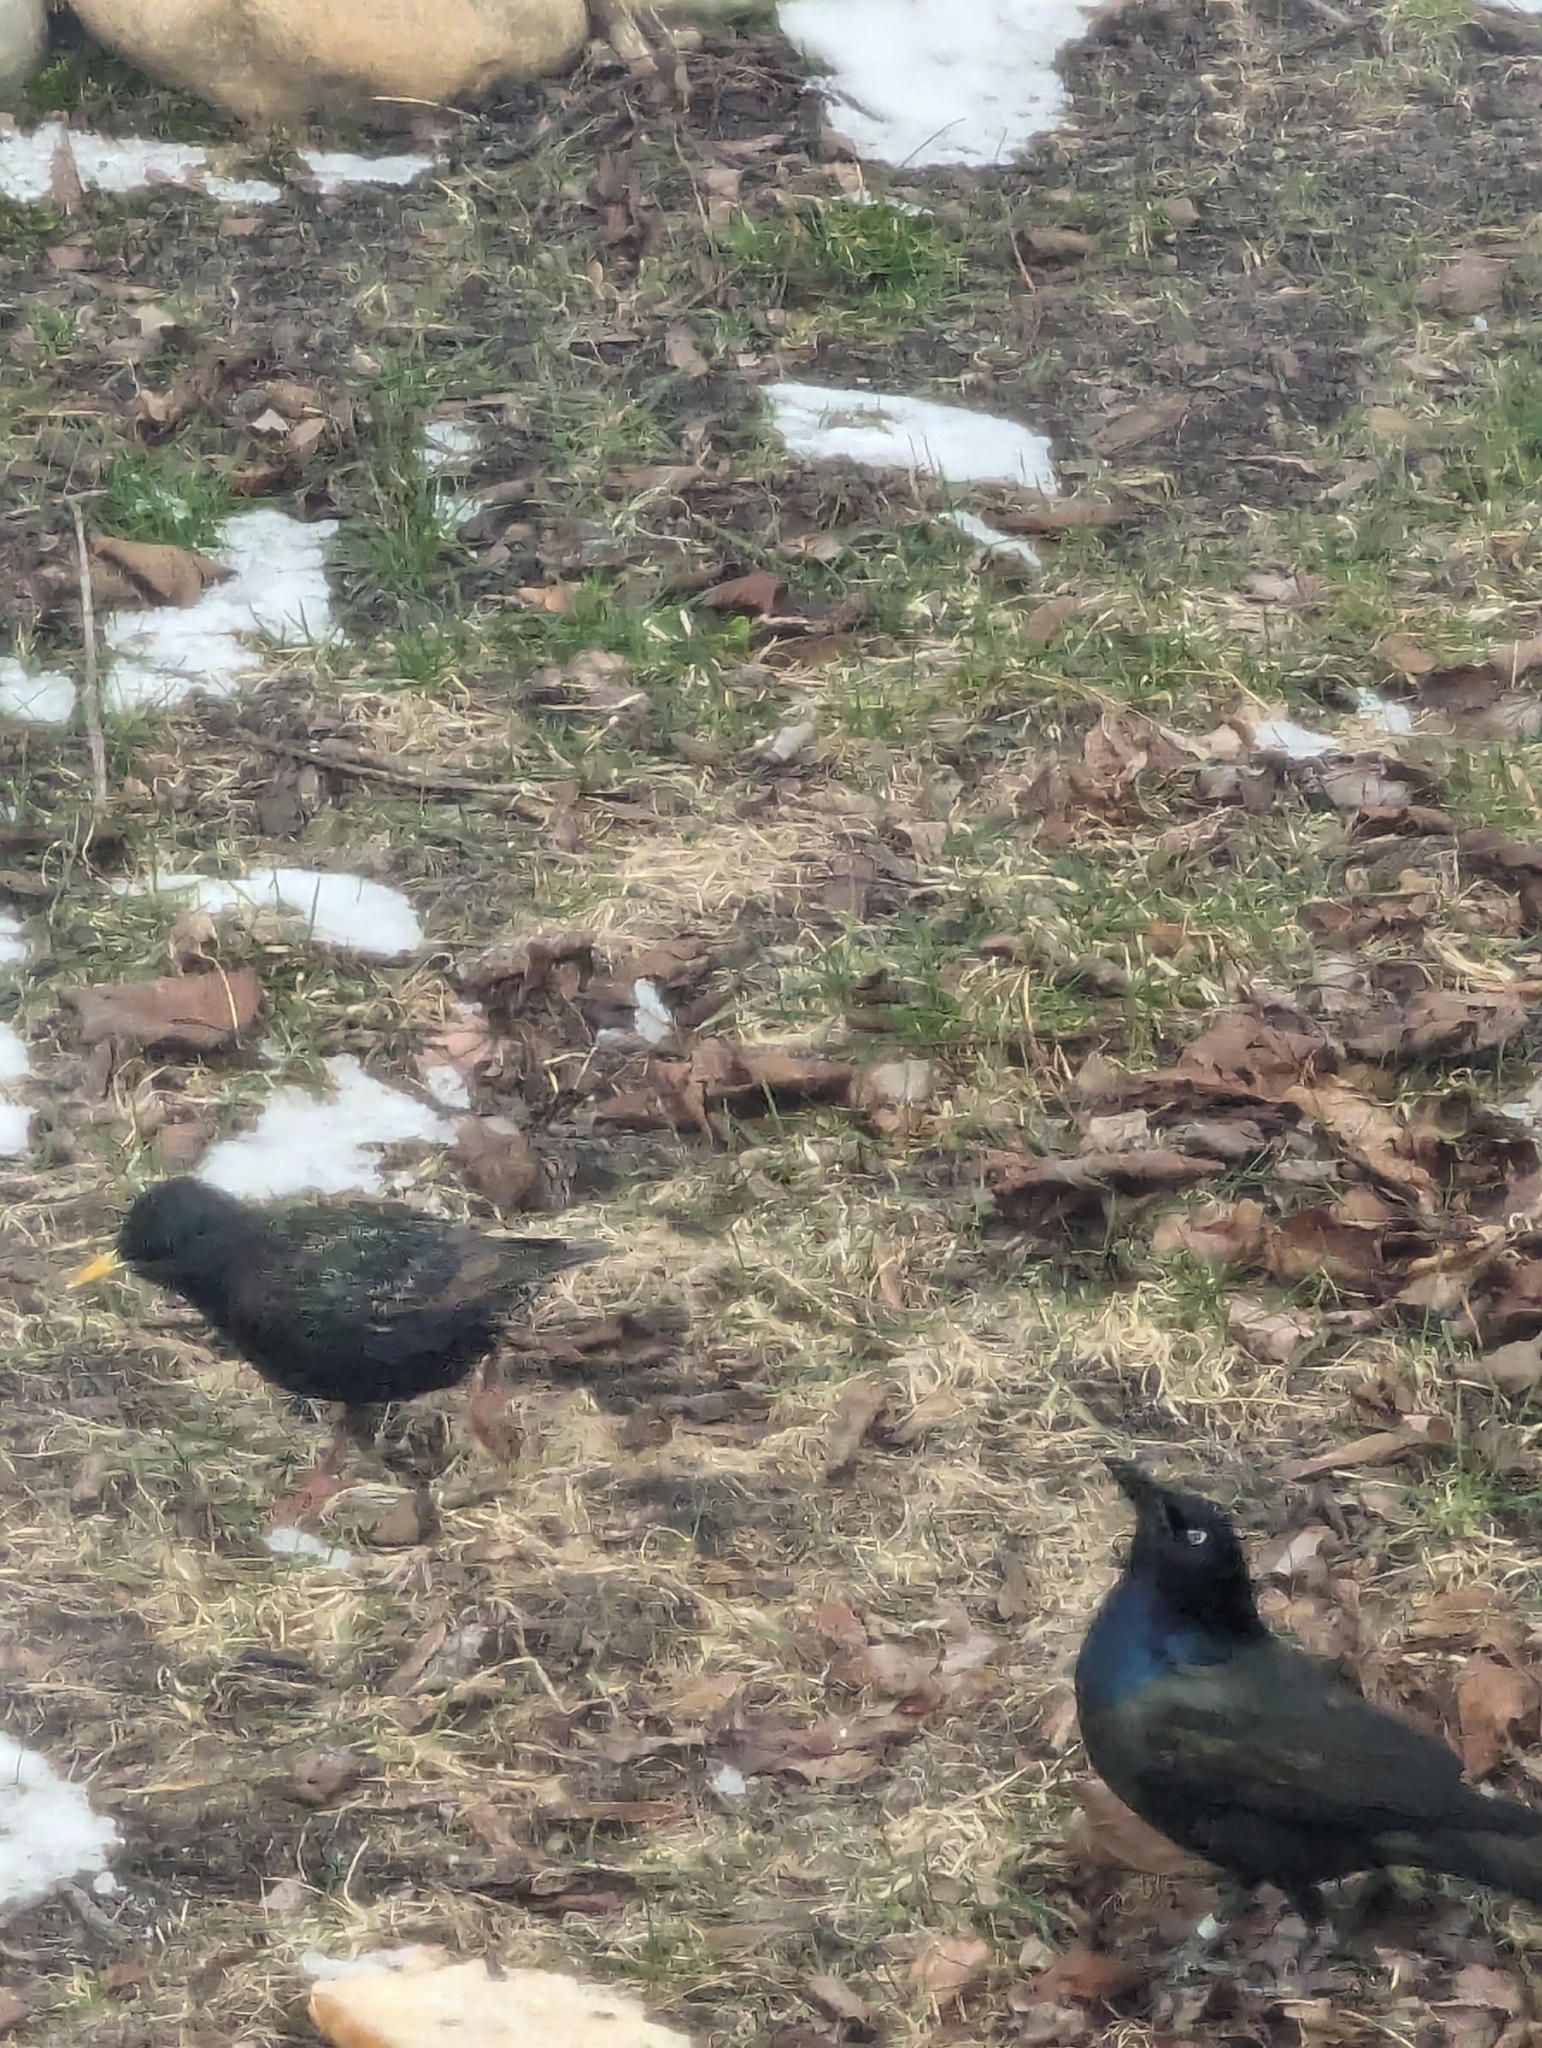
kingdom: Animalia
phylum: Chordata
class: Aves
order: Passeriformes
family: Sturnidae
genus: Sturnus
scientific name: Sturnus vulgaris
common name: Common starling
